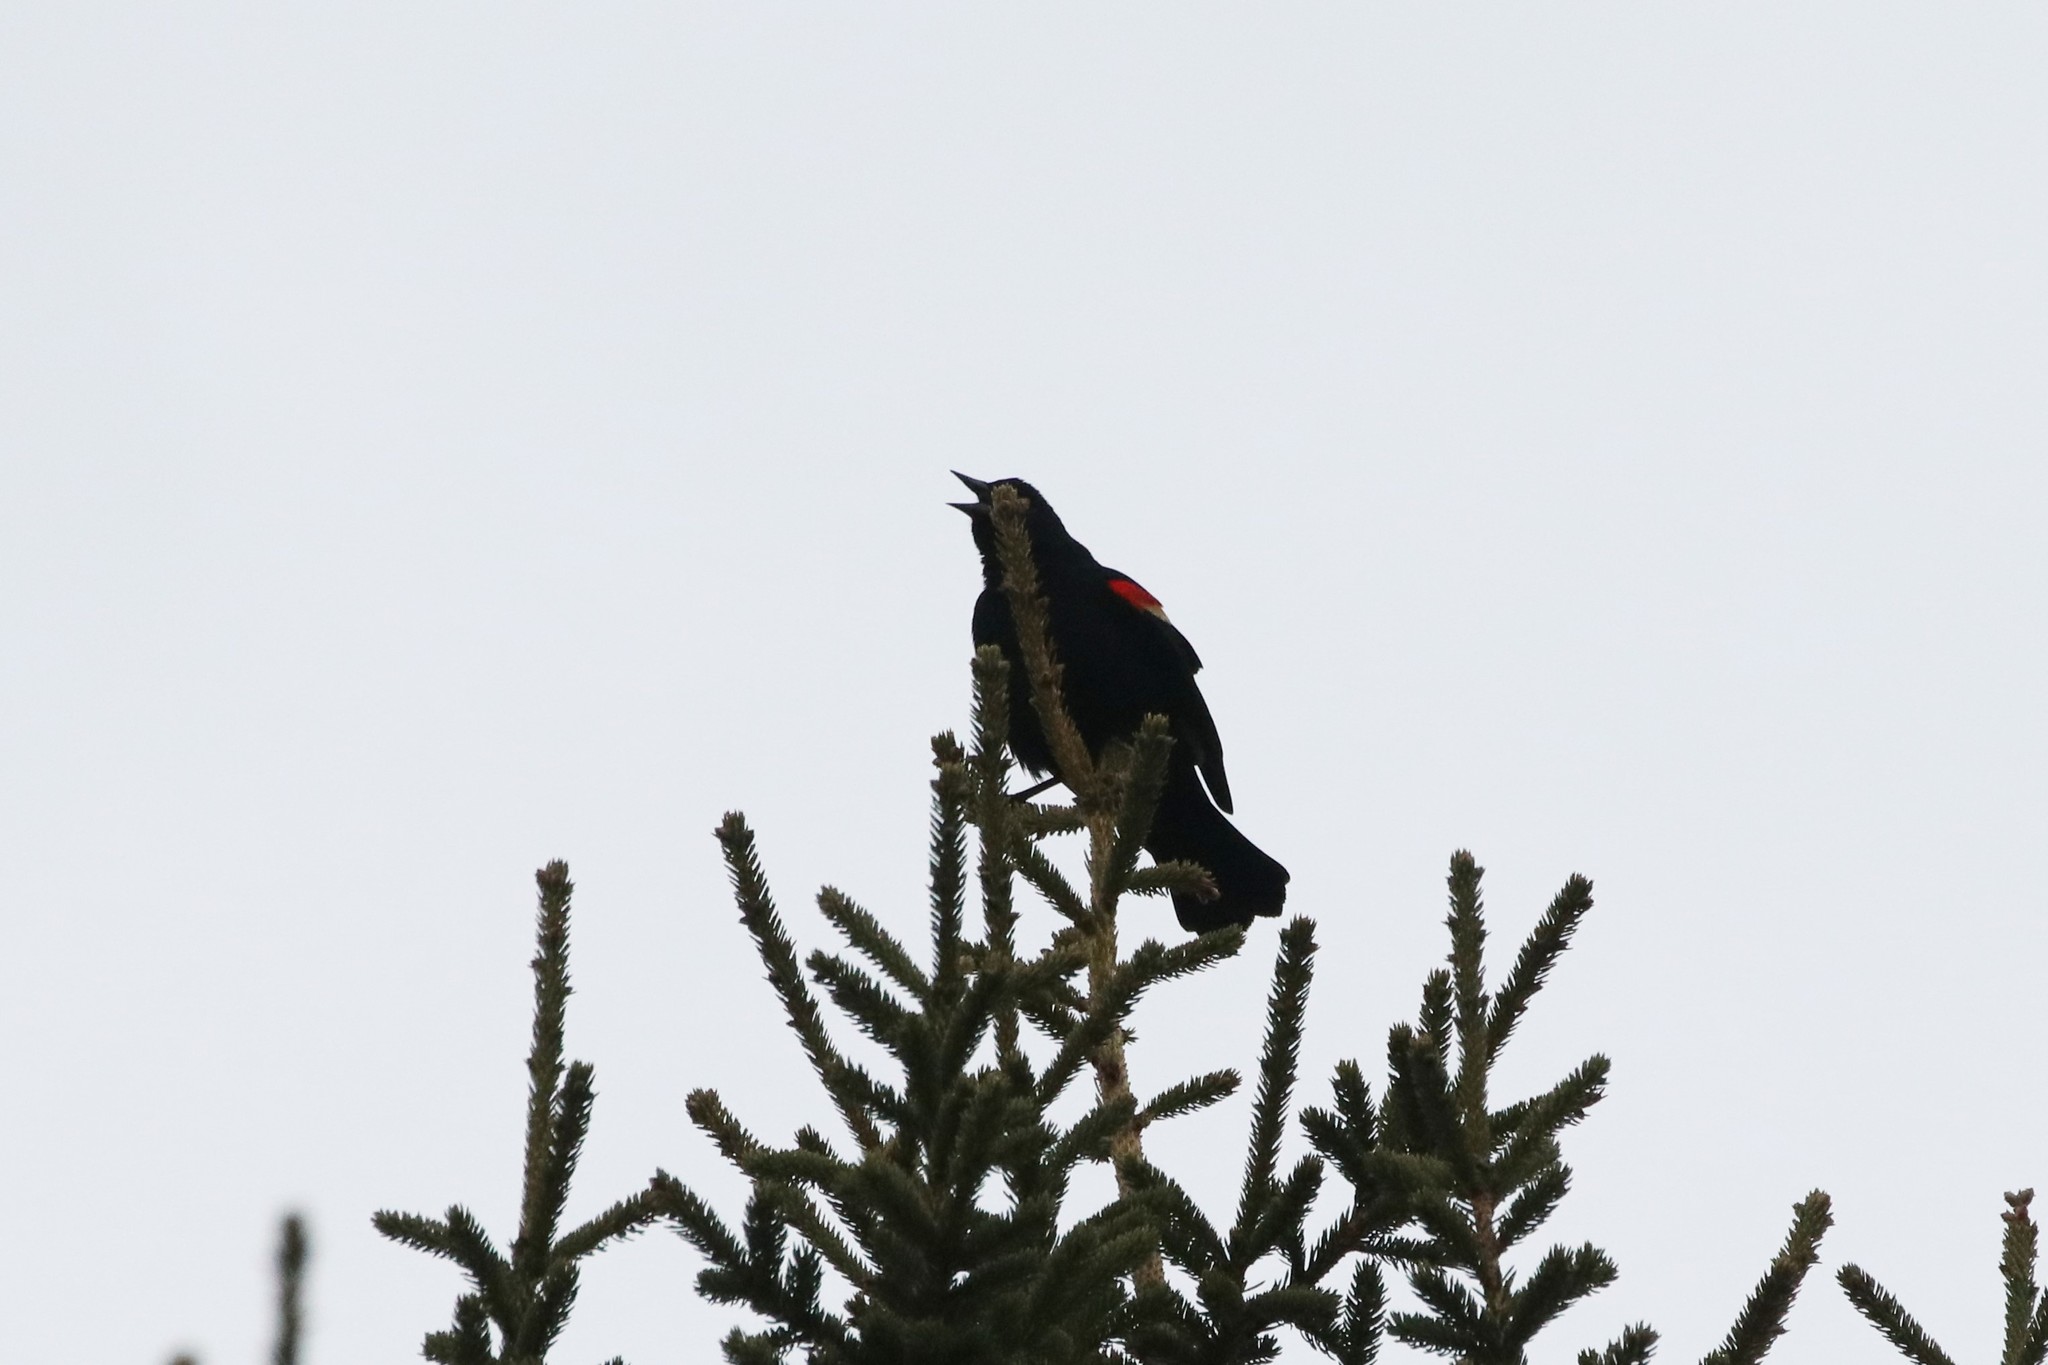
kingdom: Animalia
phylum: Chordata
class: Aves
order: Passeriformes
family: Icteridae
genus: Agelaius
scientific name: Agelaius phoeniceus
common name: Red-winged blackbird
